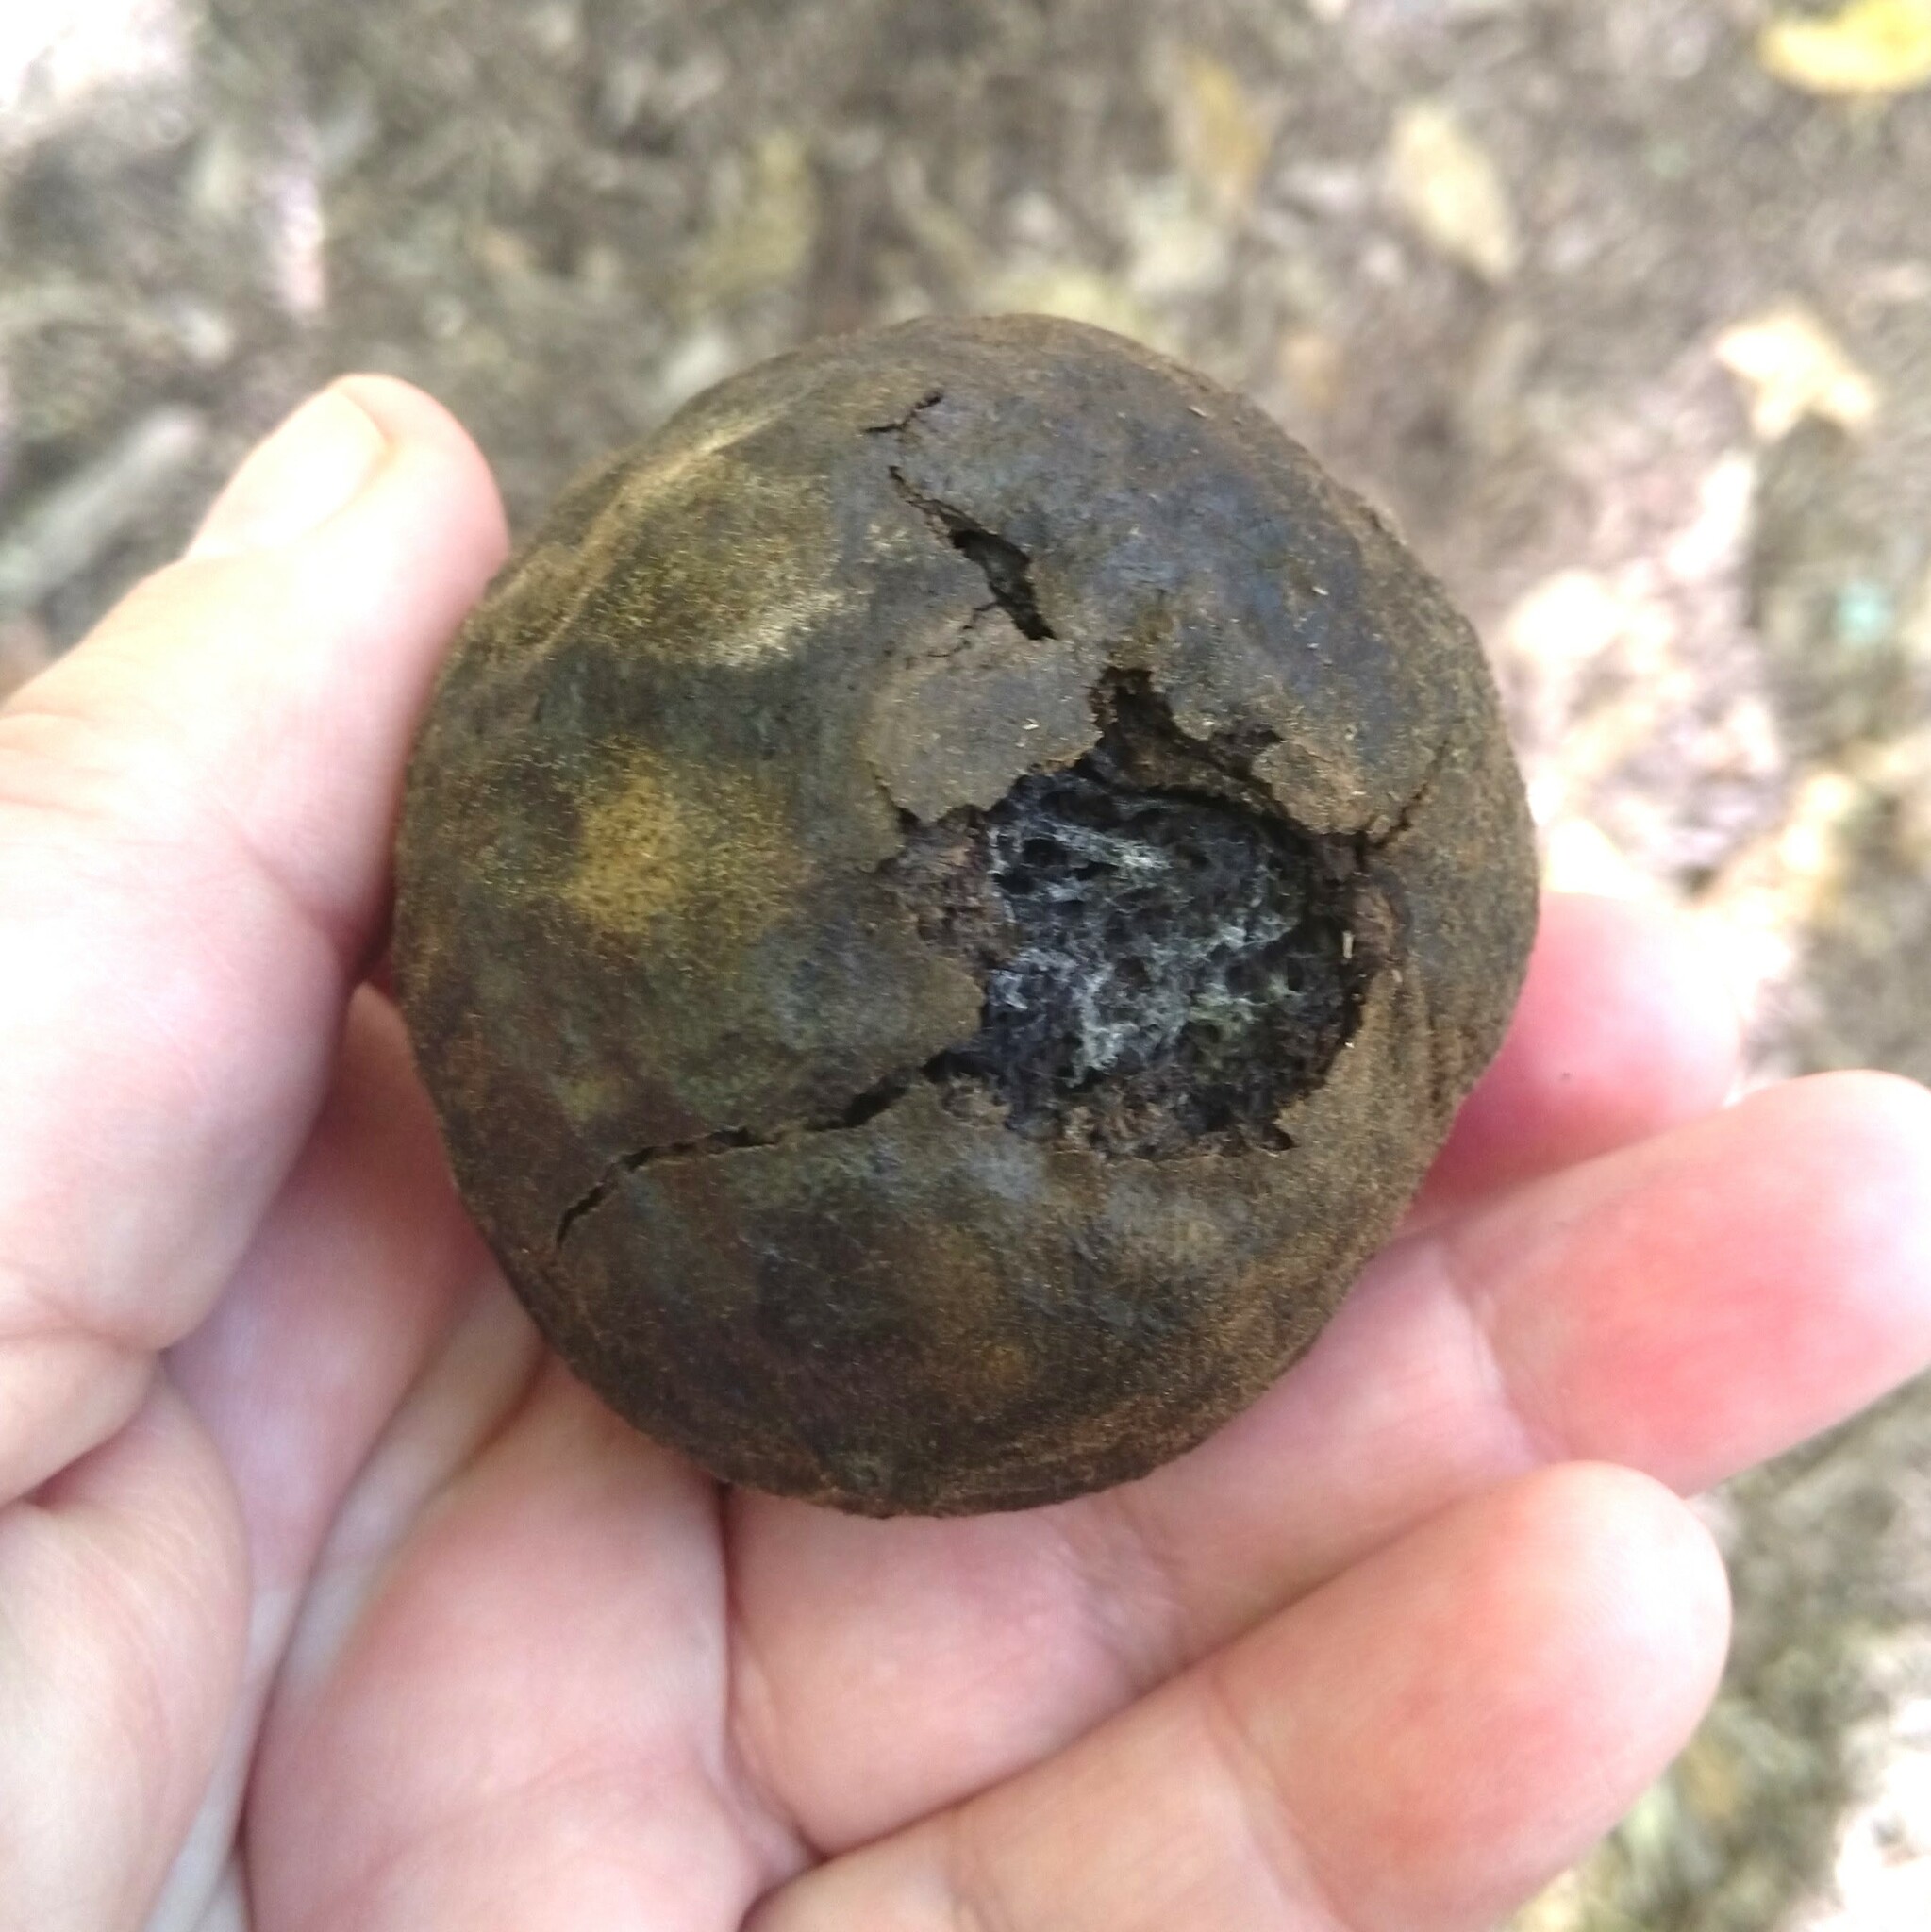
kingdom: Plantae
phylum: Tracheophyta
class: Magnoliopsida
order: Fagales
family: Juglandaceae
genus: Juglans
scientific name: Juglans nigra
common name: Black walnut
